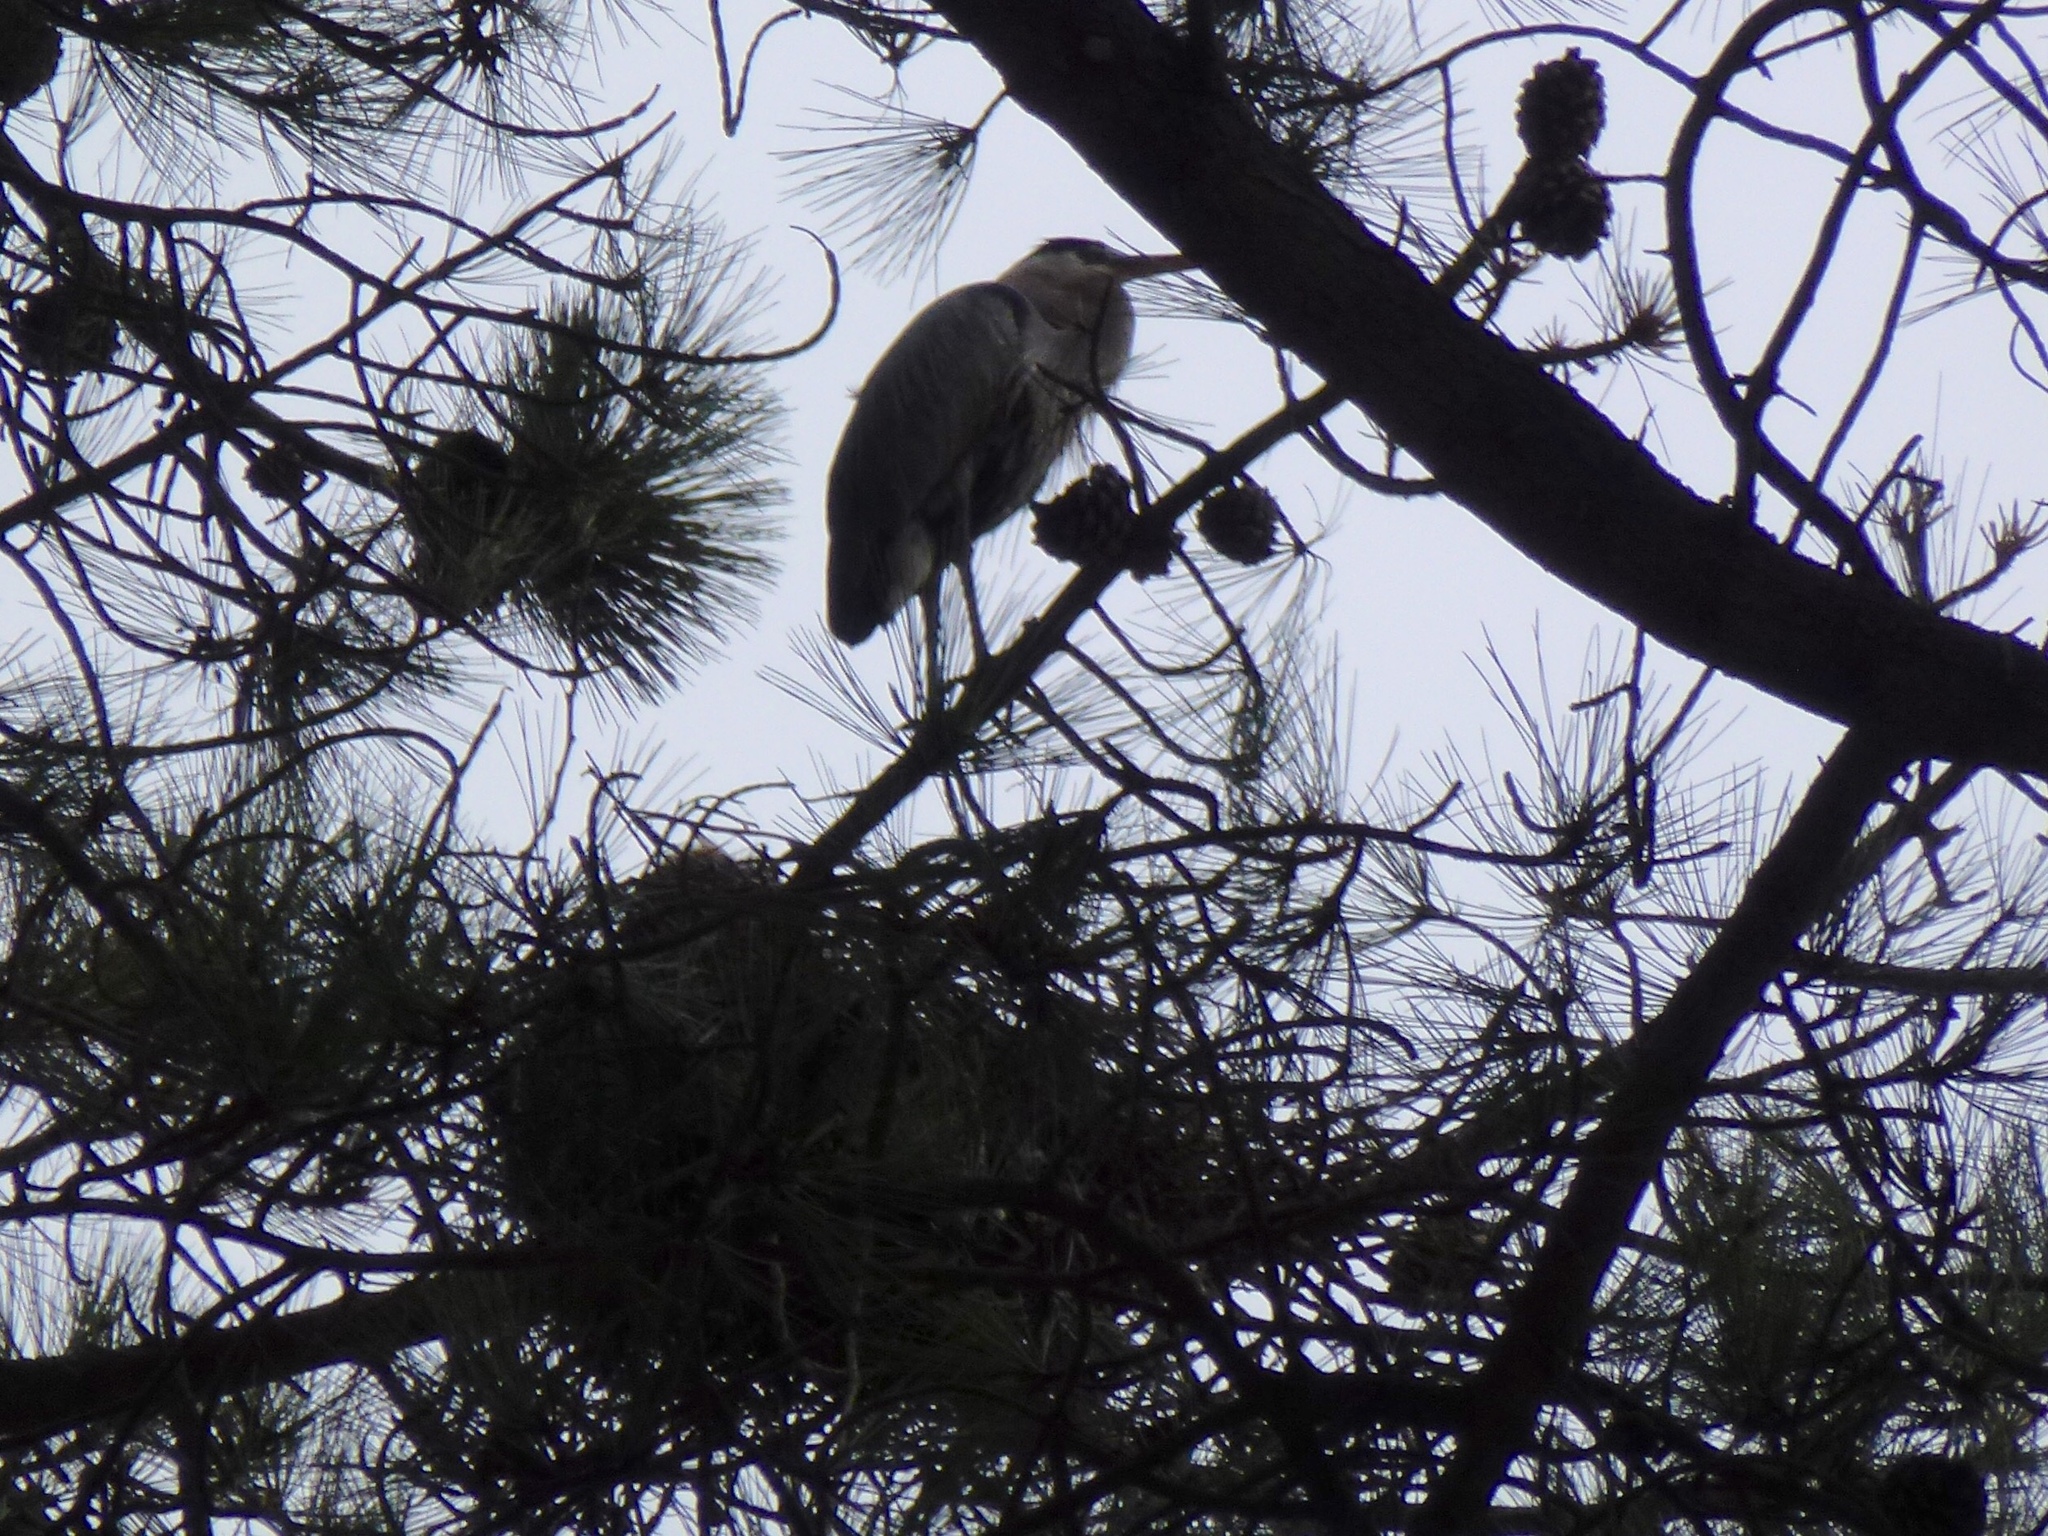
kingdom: Animalia
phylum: Chordata
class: Aves
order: Pelecaniformes
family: Ardeidae
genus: Ardea
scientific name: Ardea herodias
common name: Great blue heron
